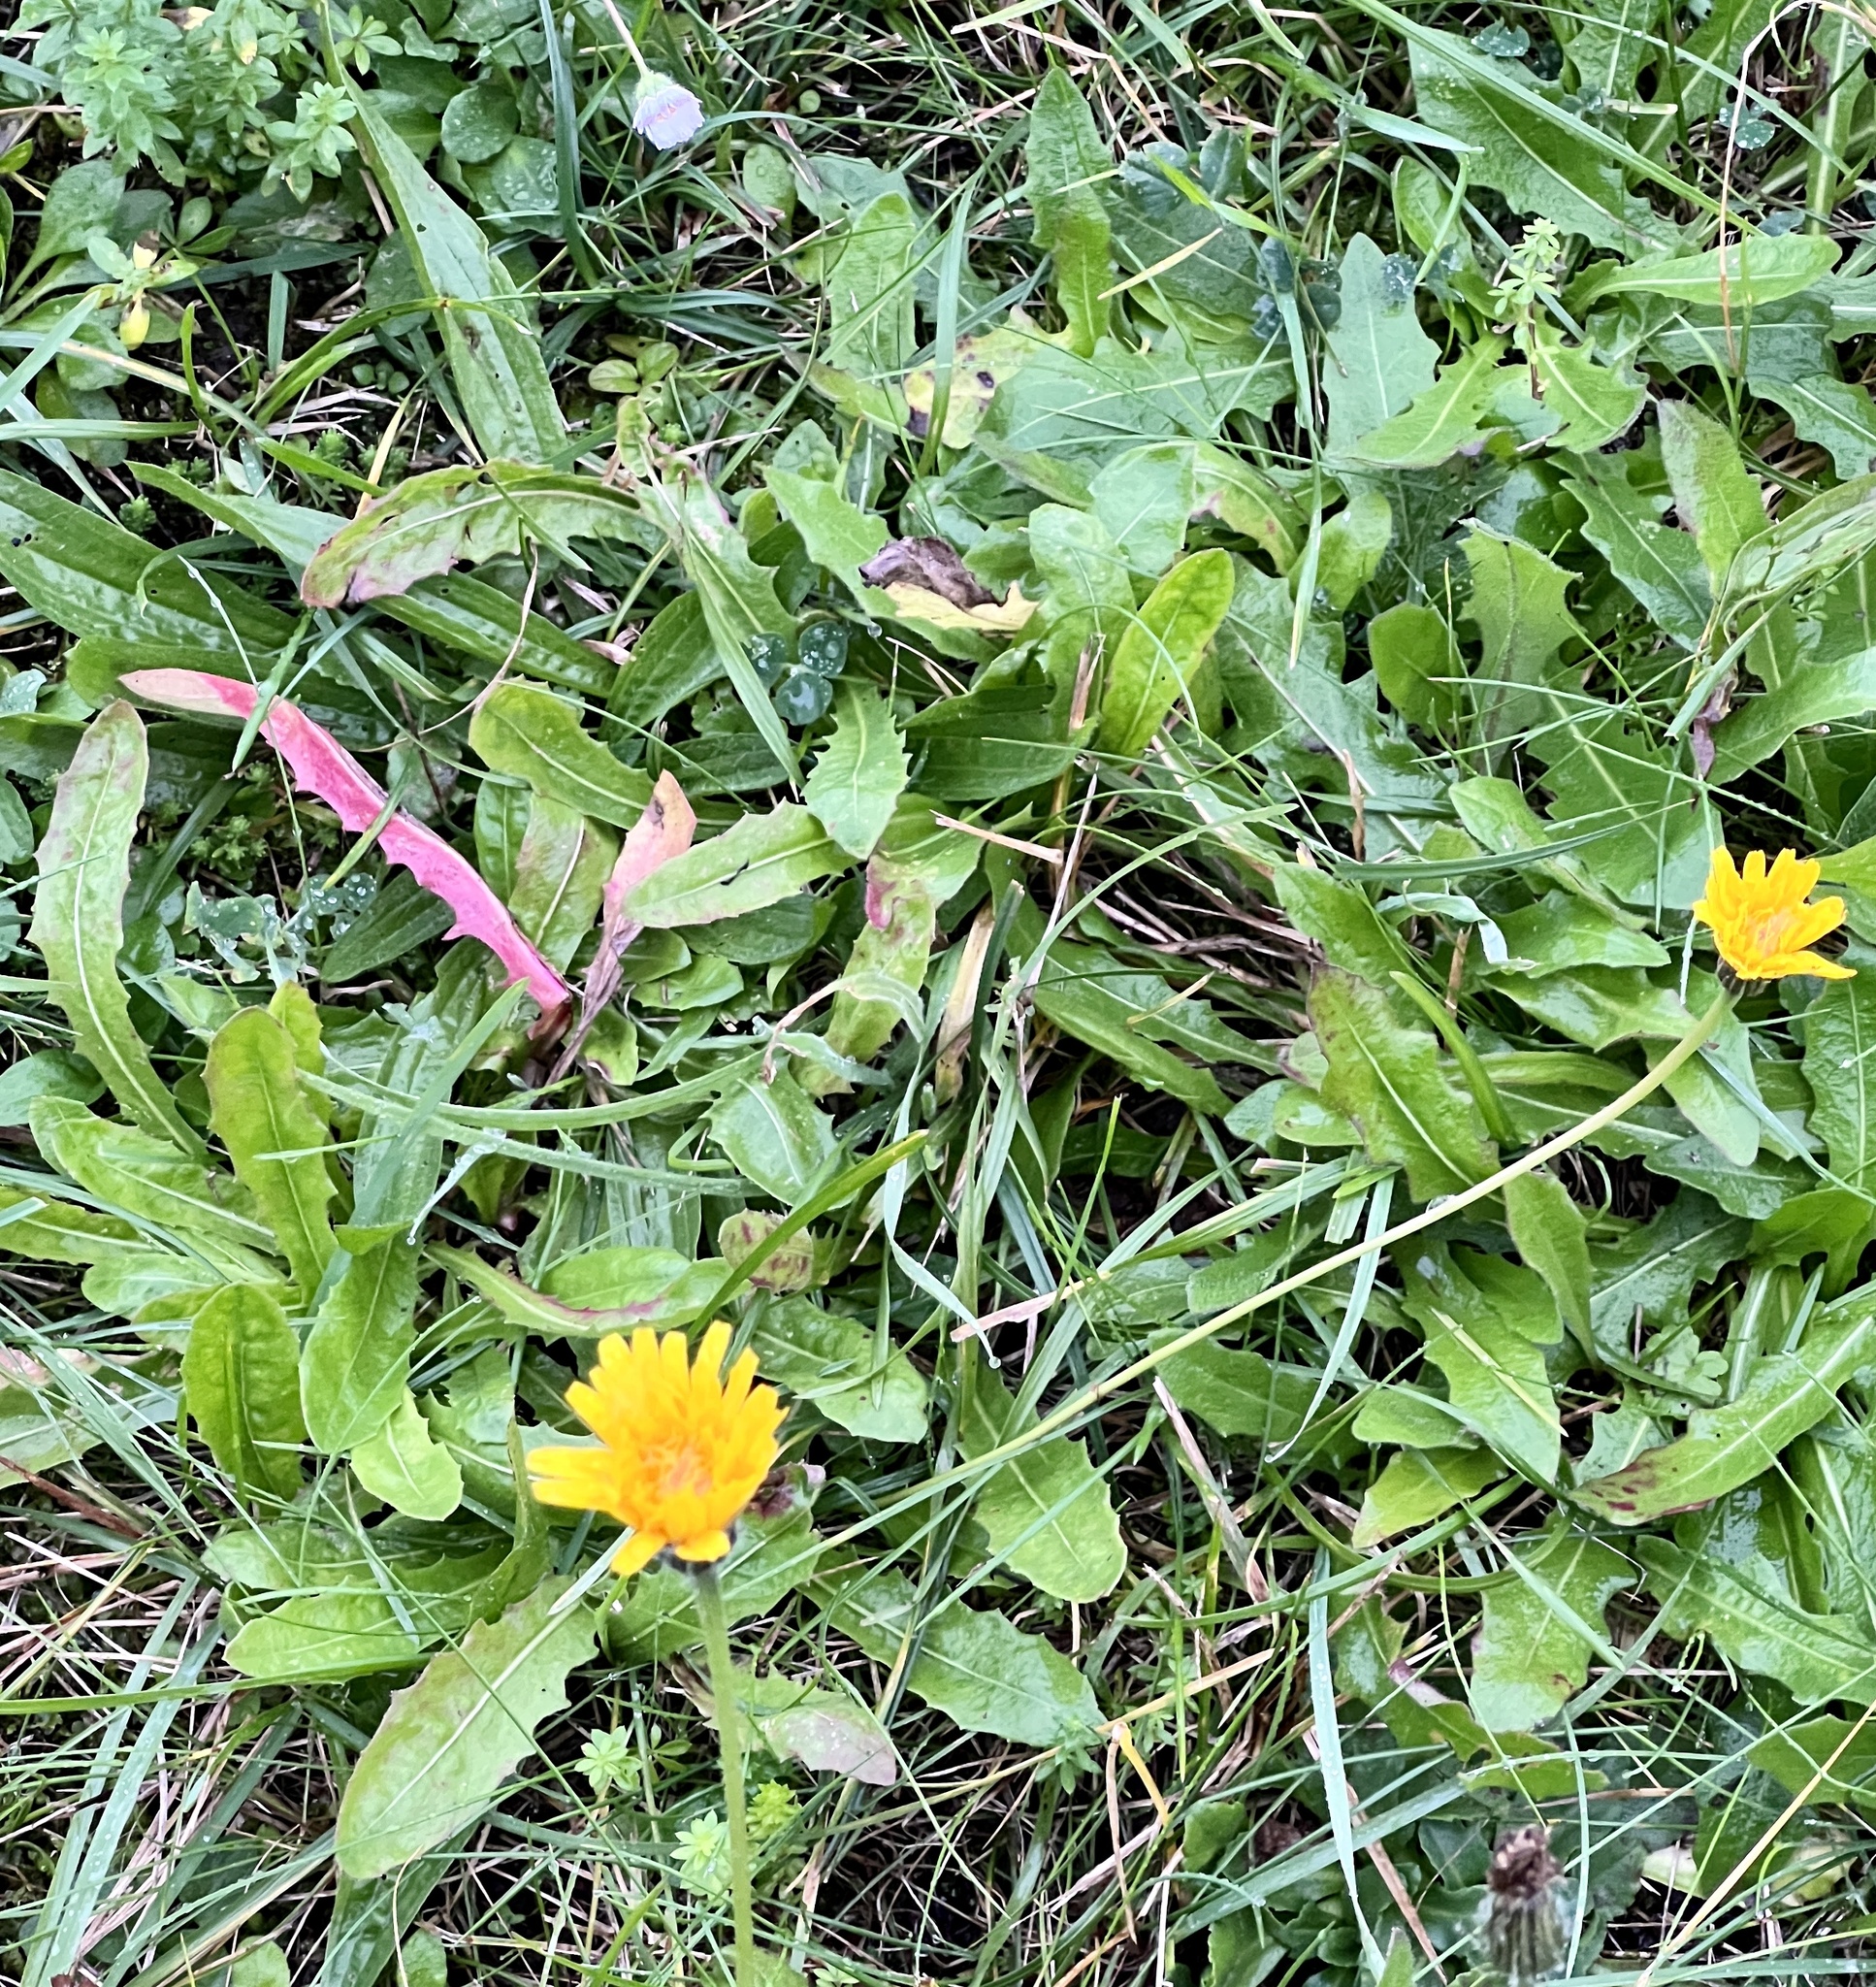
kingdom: Plantae
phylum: Tracheophyta
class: Magnoliopsida
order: Asterales
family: Asteraceae
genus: Leontodon
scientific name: Leontodon hispidus
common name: Rough hawkbit
